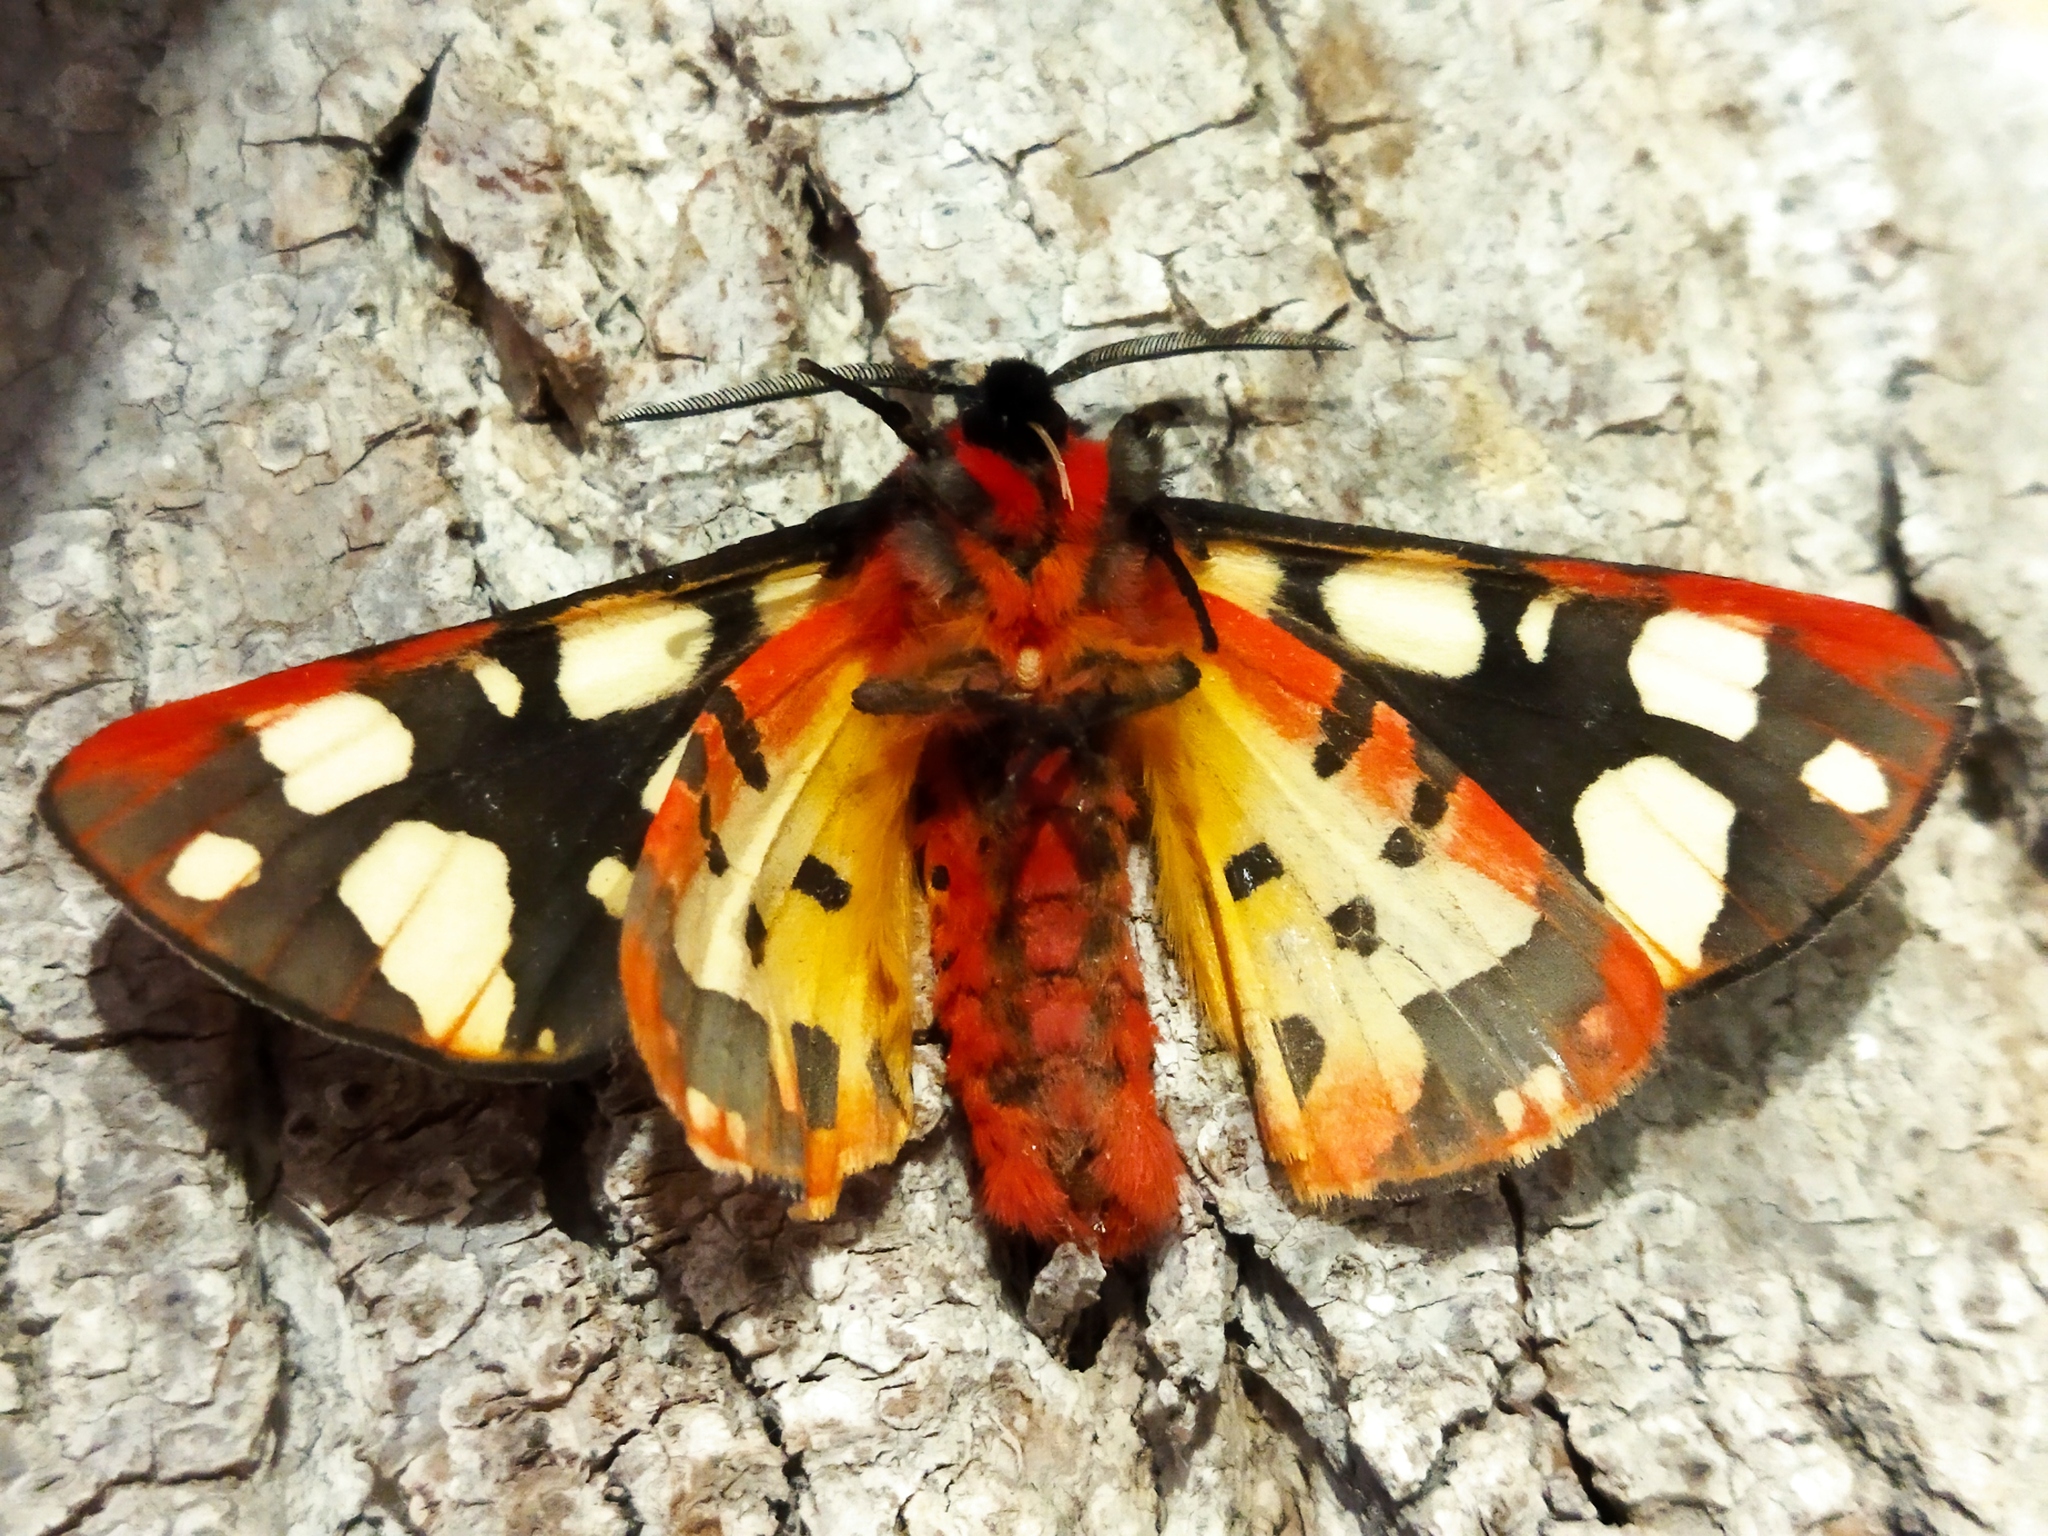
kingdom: Animalia
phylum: Arthropoda
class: Insecta
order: Lepidoptera
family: Erebidae
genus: Epicallia
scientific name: Epicallia villica
